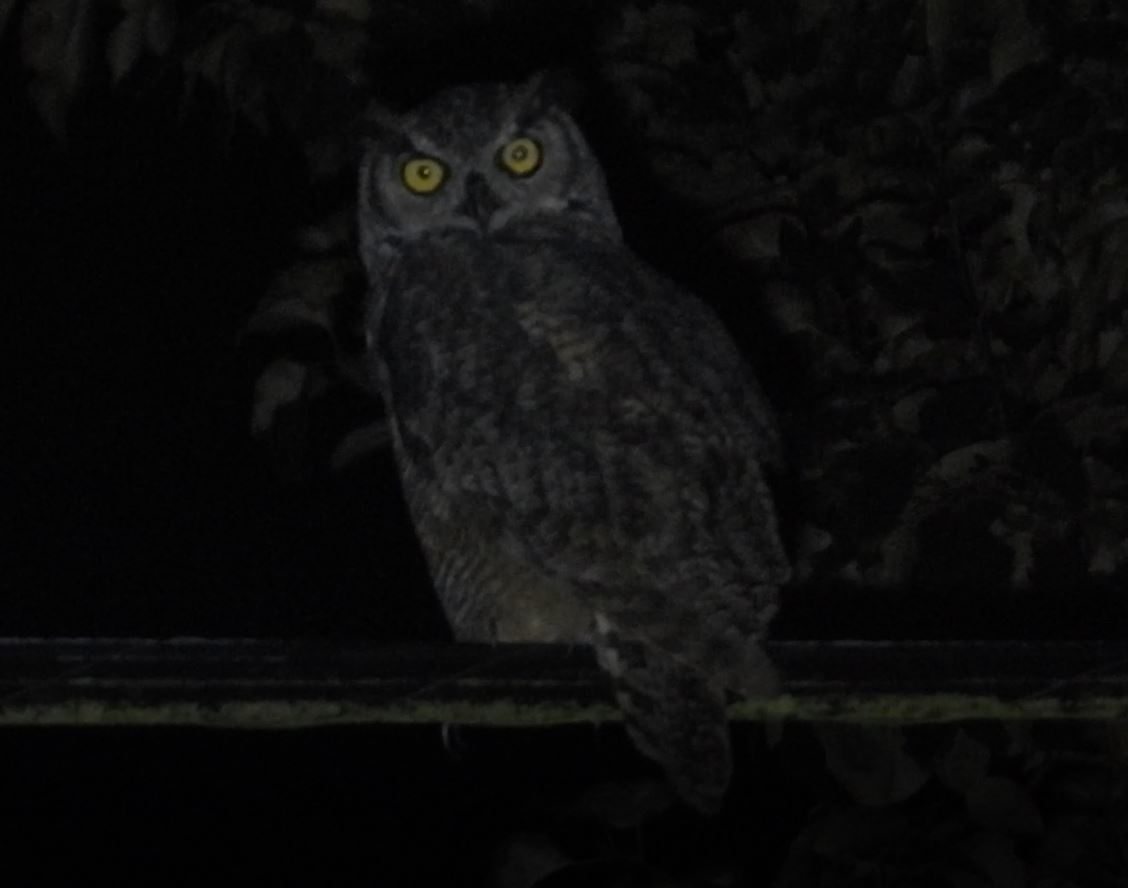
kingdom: Animalia
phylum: Chordata
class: Aves
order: Strigiformes
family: Strigidae
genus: Bubo
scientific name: Bubo virginianus
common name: Great horned owl
